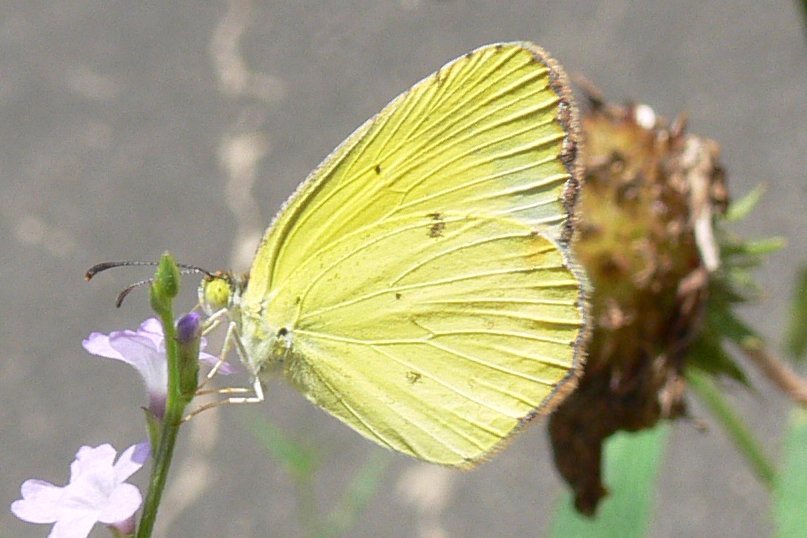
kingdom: Animalia
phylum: Arthropoda
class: Insecta
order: Lepidoptera
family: Pieridae
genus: Pyrisitia
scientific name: Pyrisitia lisa
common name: Little yellow
